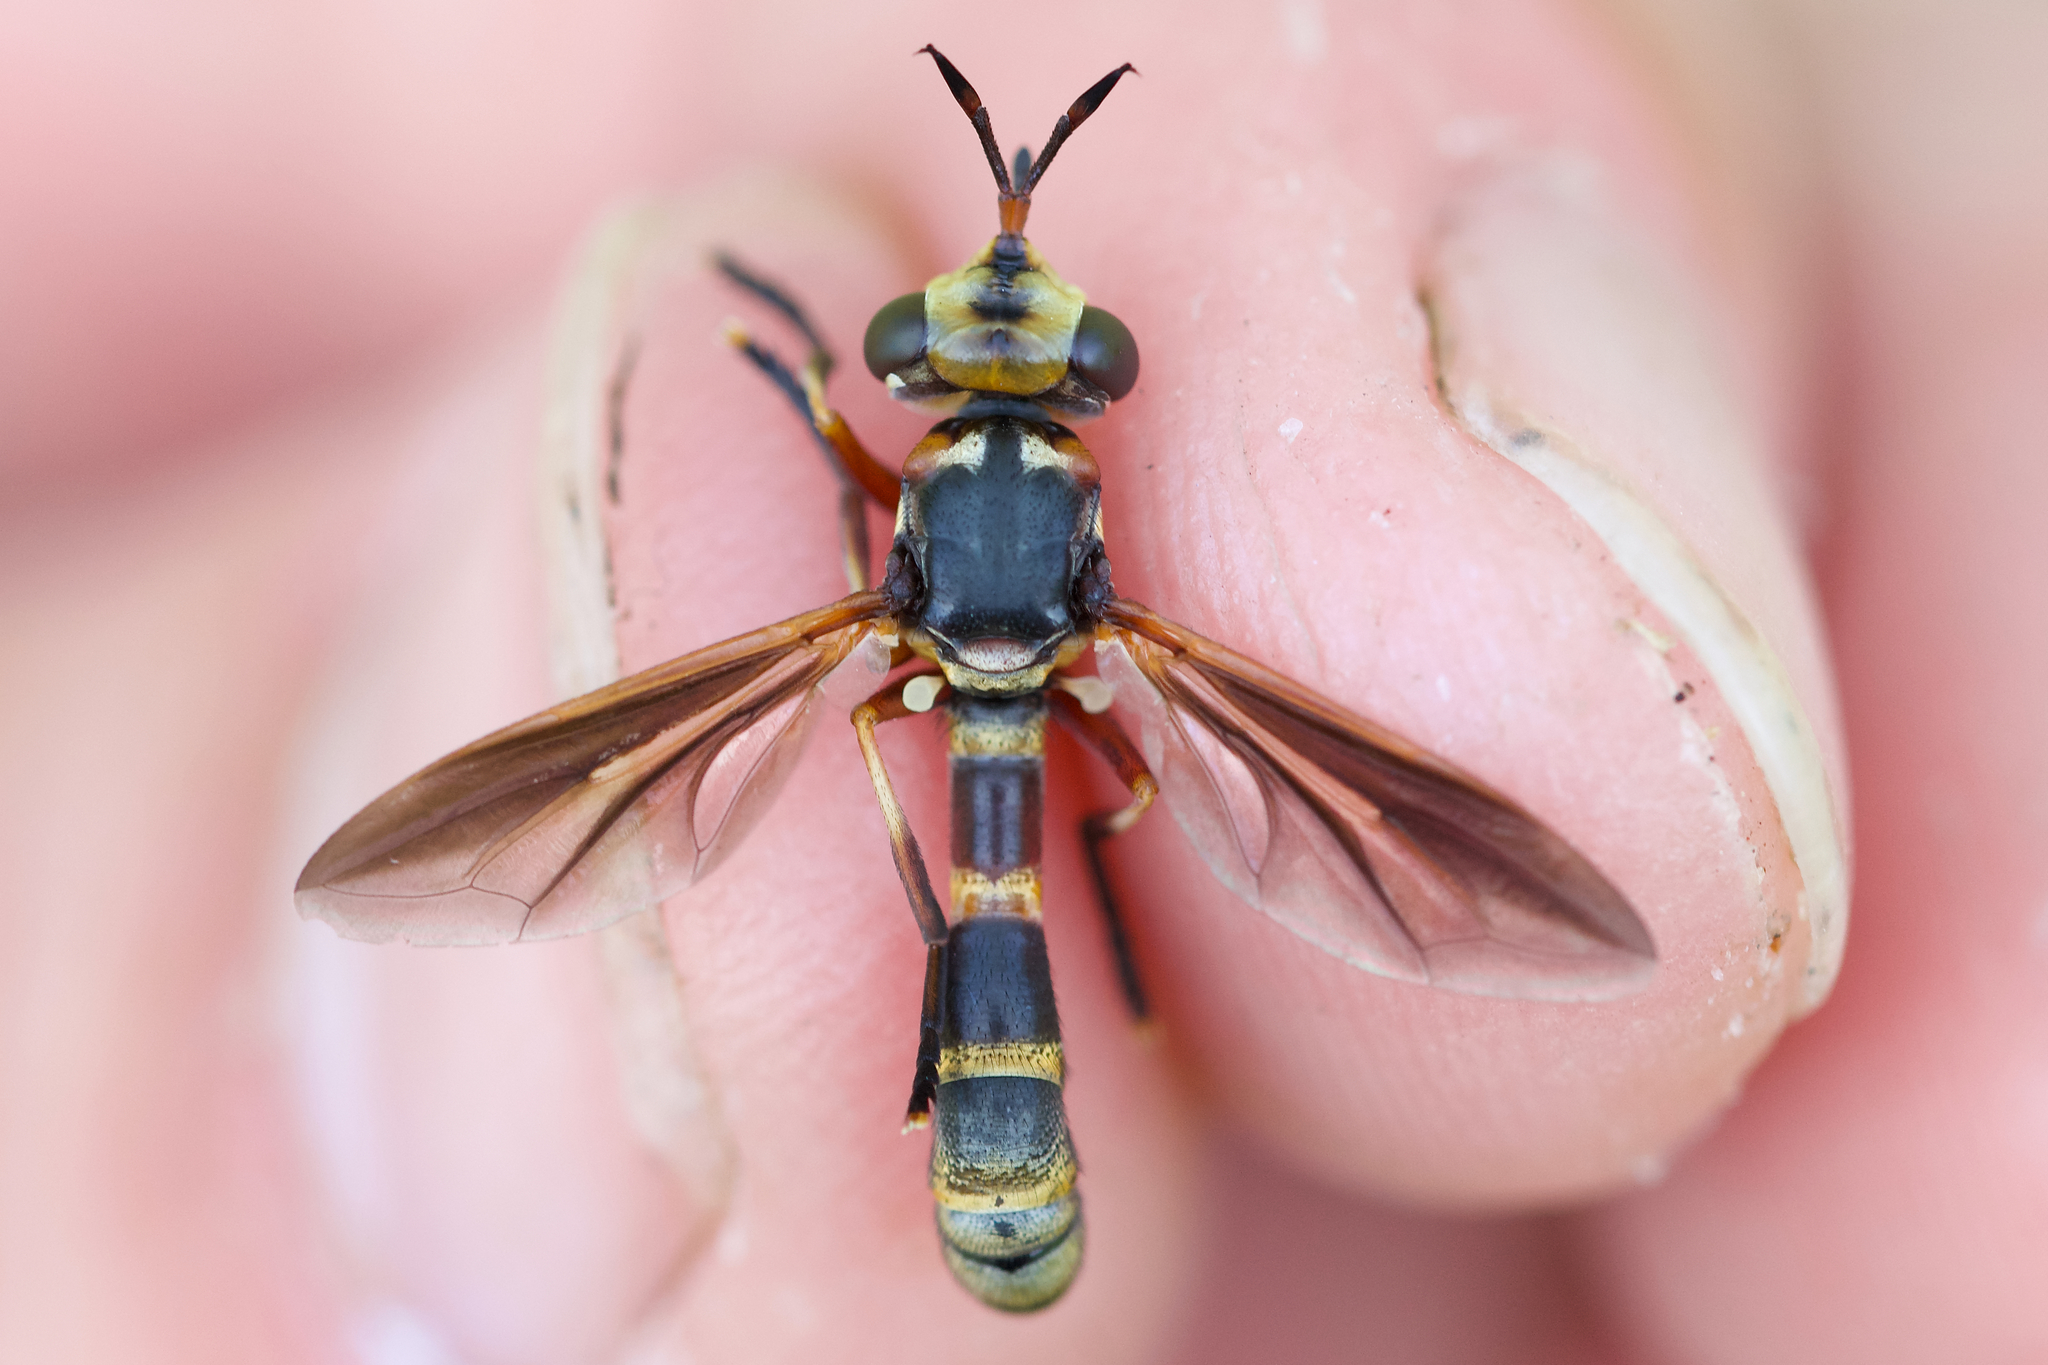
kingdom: Animalia
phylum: Arthropoda
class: Insecta
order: Diptera
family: Conopidae
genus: Physoconops
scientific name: Physoconops brachyrhynchus
